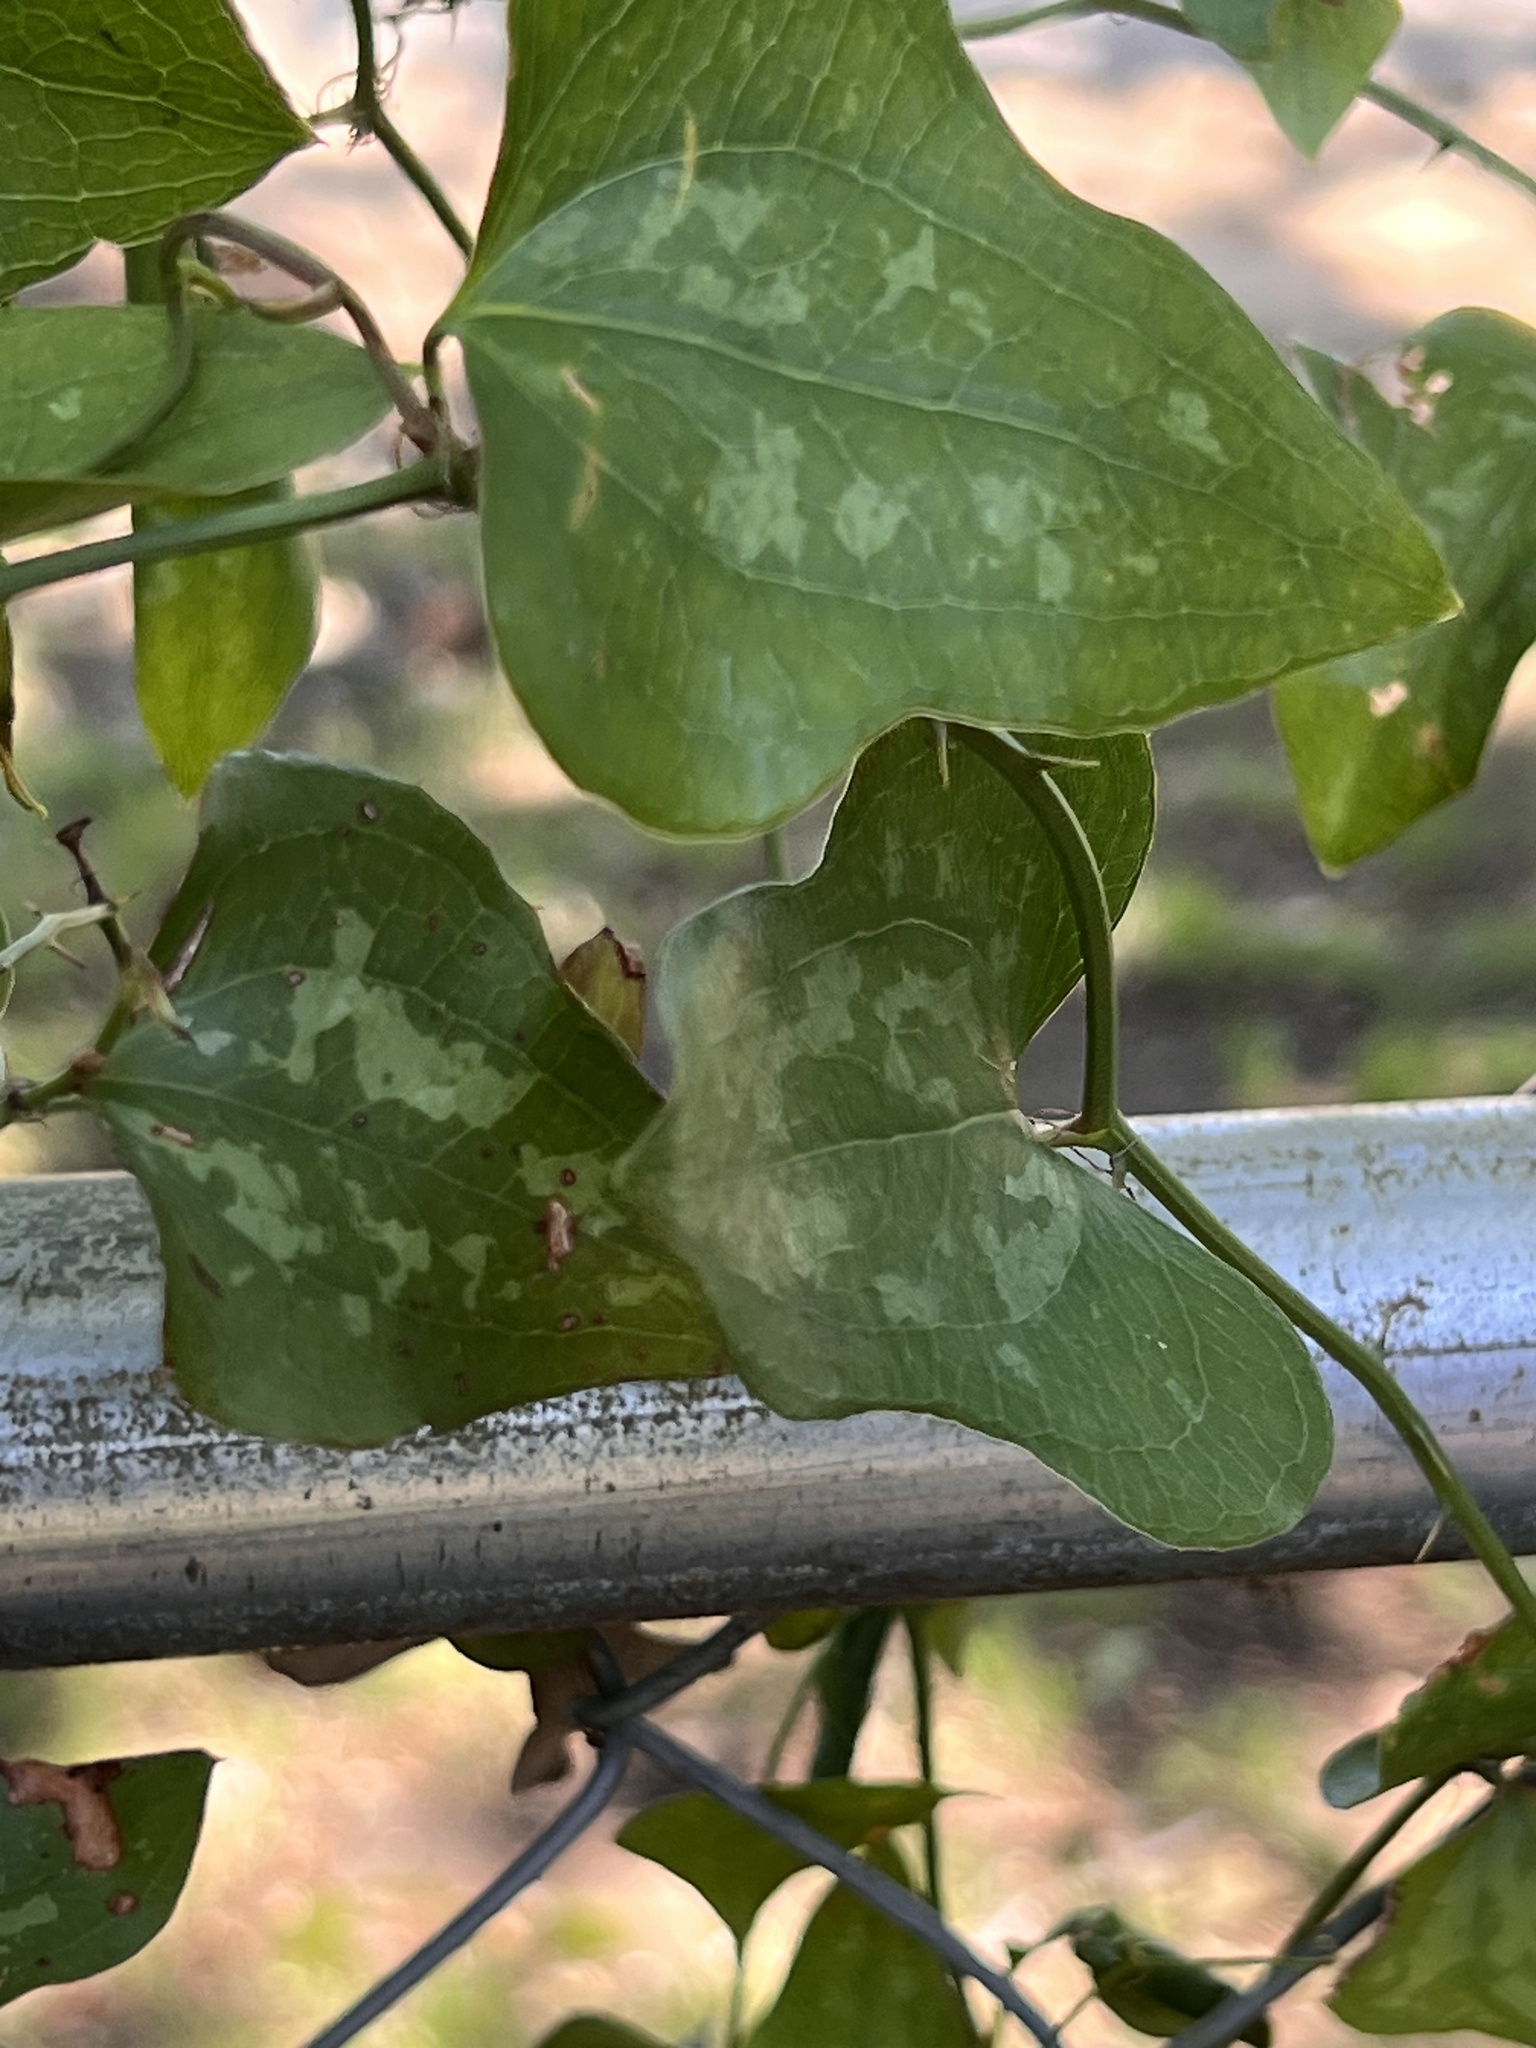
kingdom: Plantae
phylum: Tracheophyta
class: Liliopsida
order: Liliales
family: Smilacaceae
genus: Smilax
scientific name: Smilax bona-nox
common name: Catbrier
